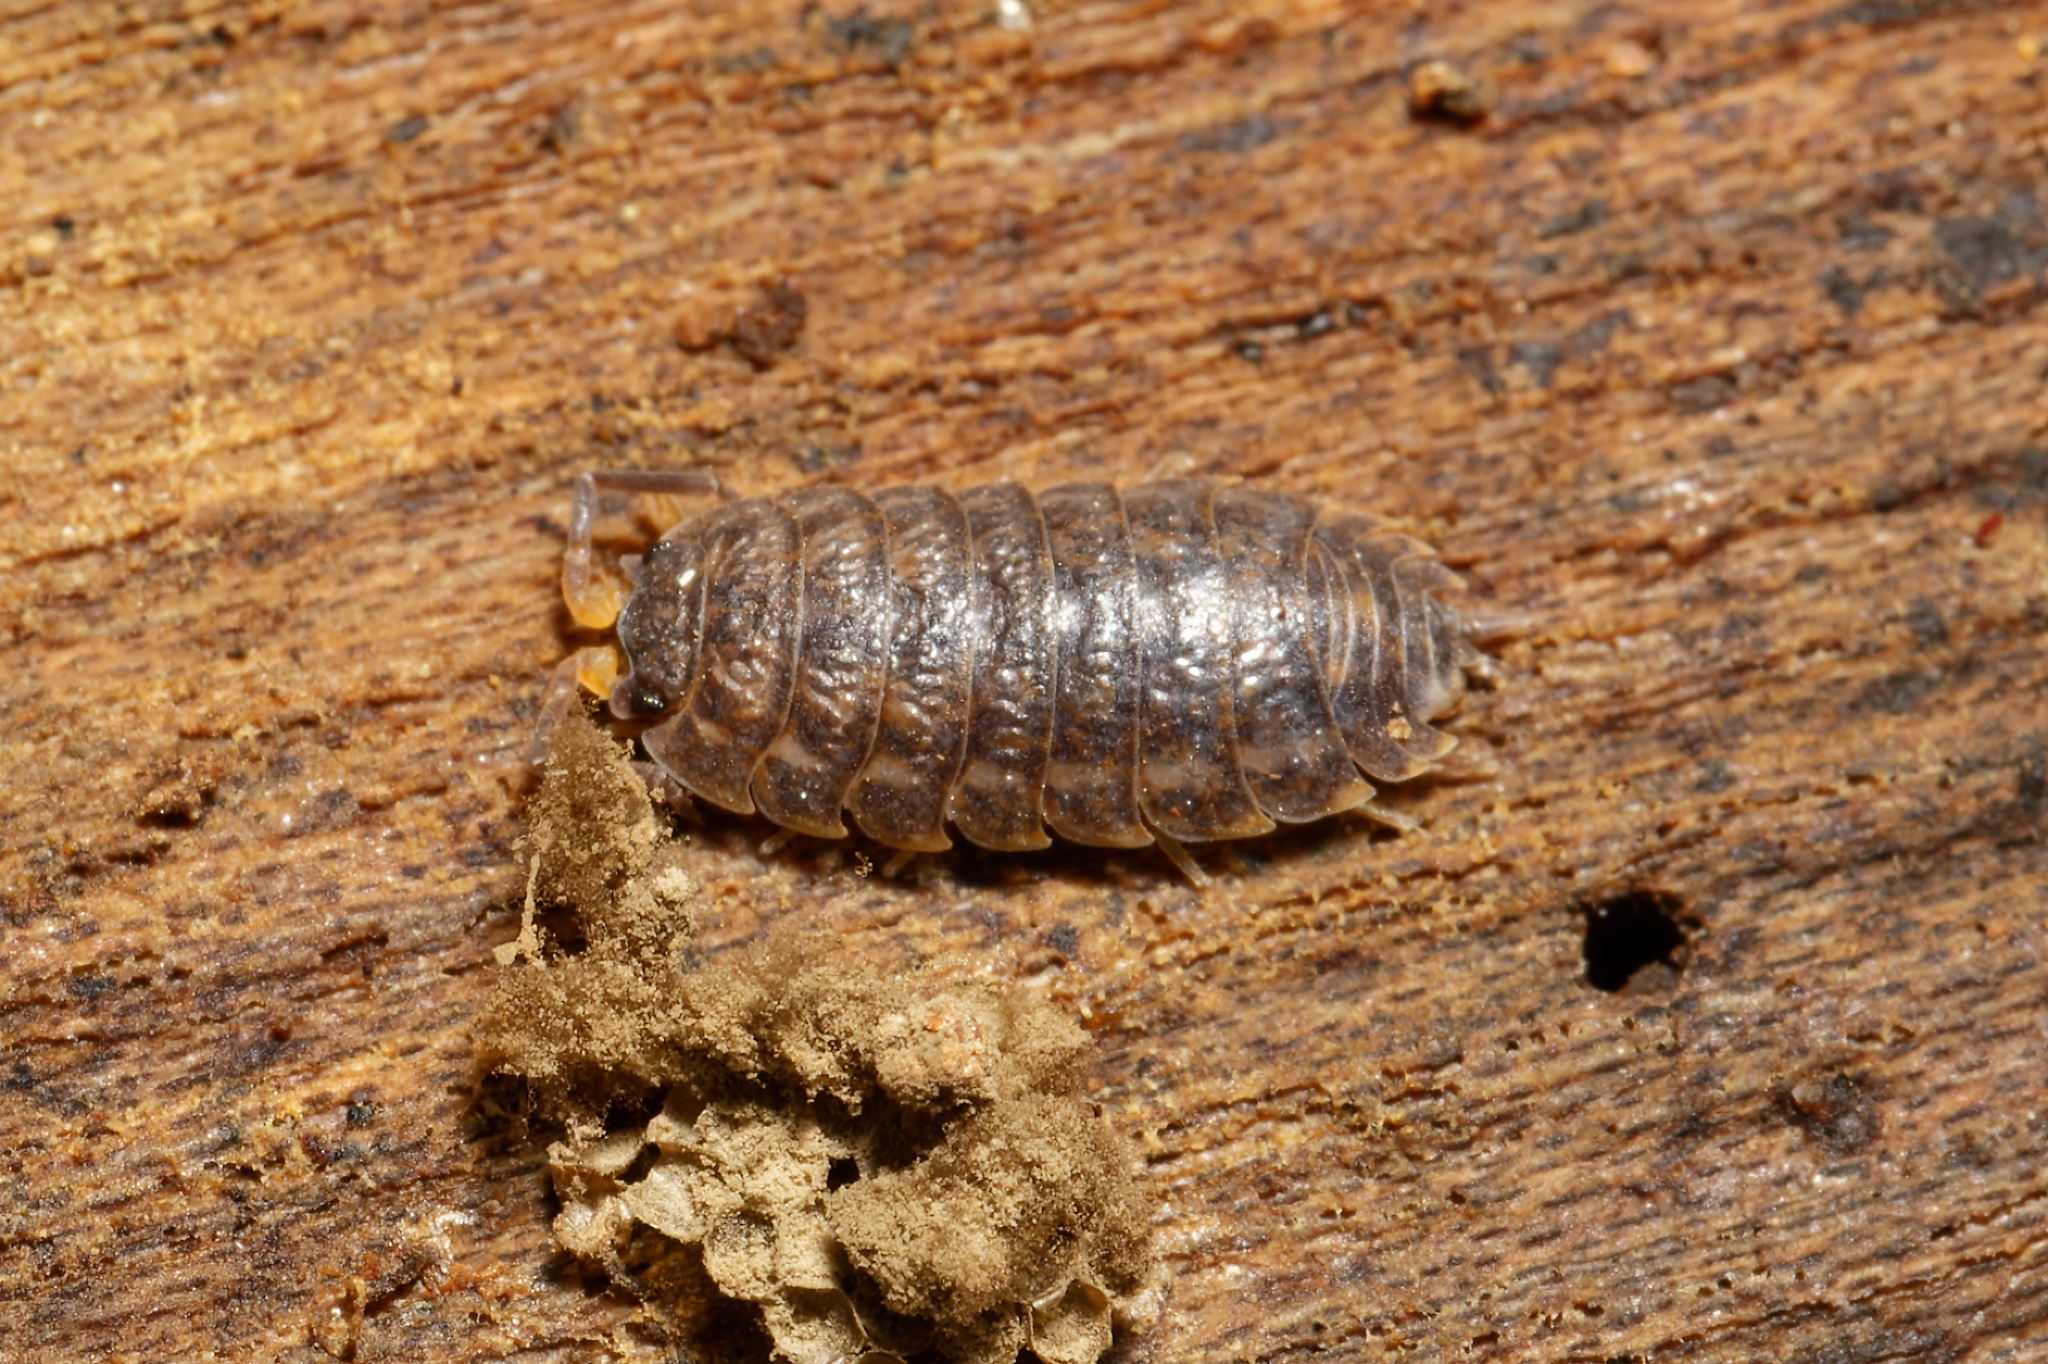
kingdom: Animalia
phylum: Arthropoda
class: Malacostraca
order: Isopoda
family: Trachelipodidae
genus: Trachelipus
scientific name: Trachelipus rathkii
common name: Isopod
